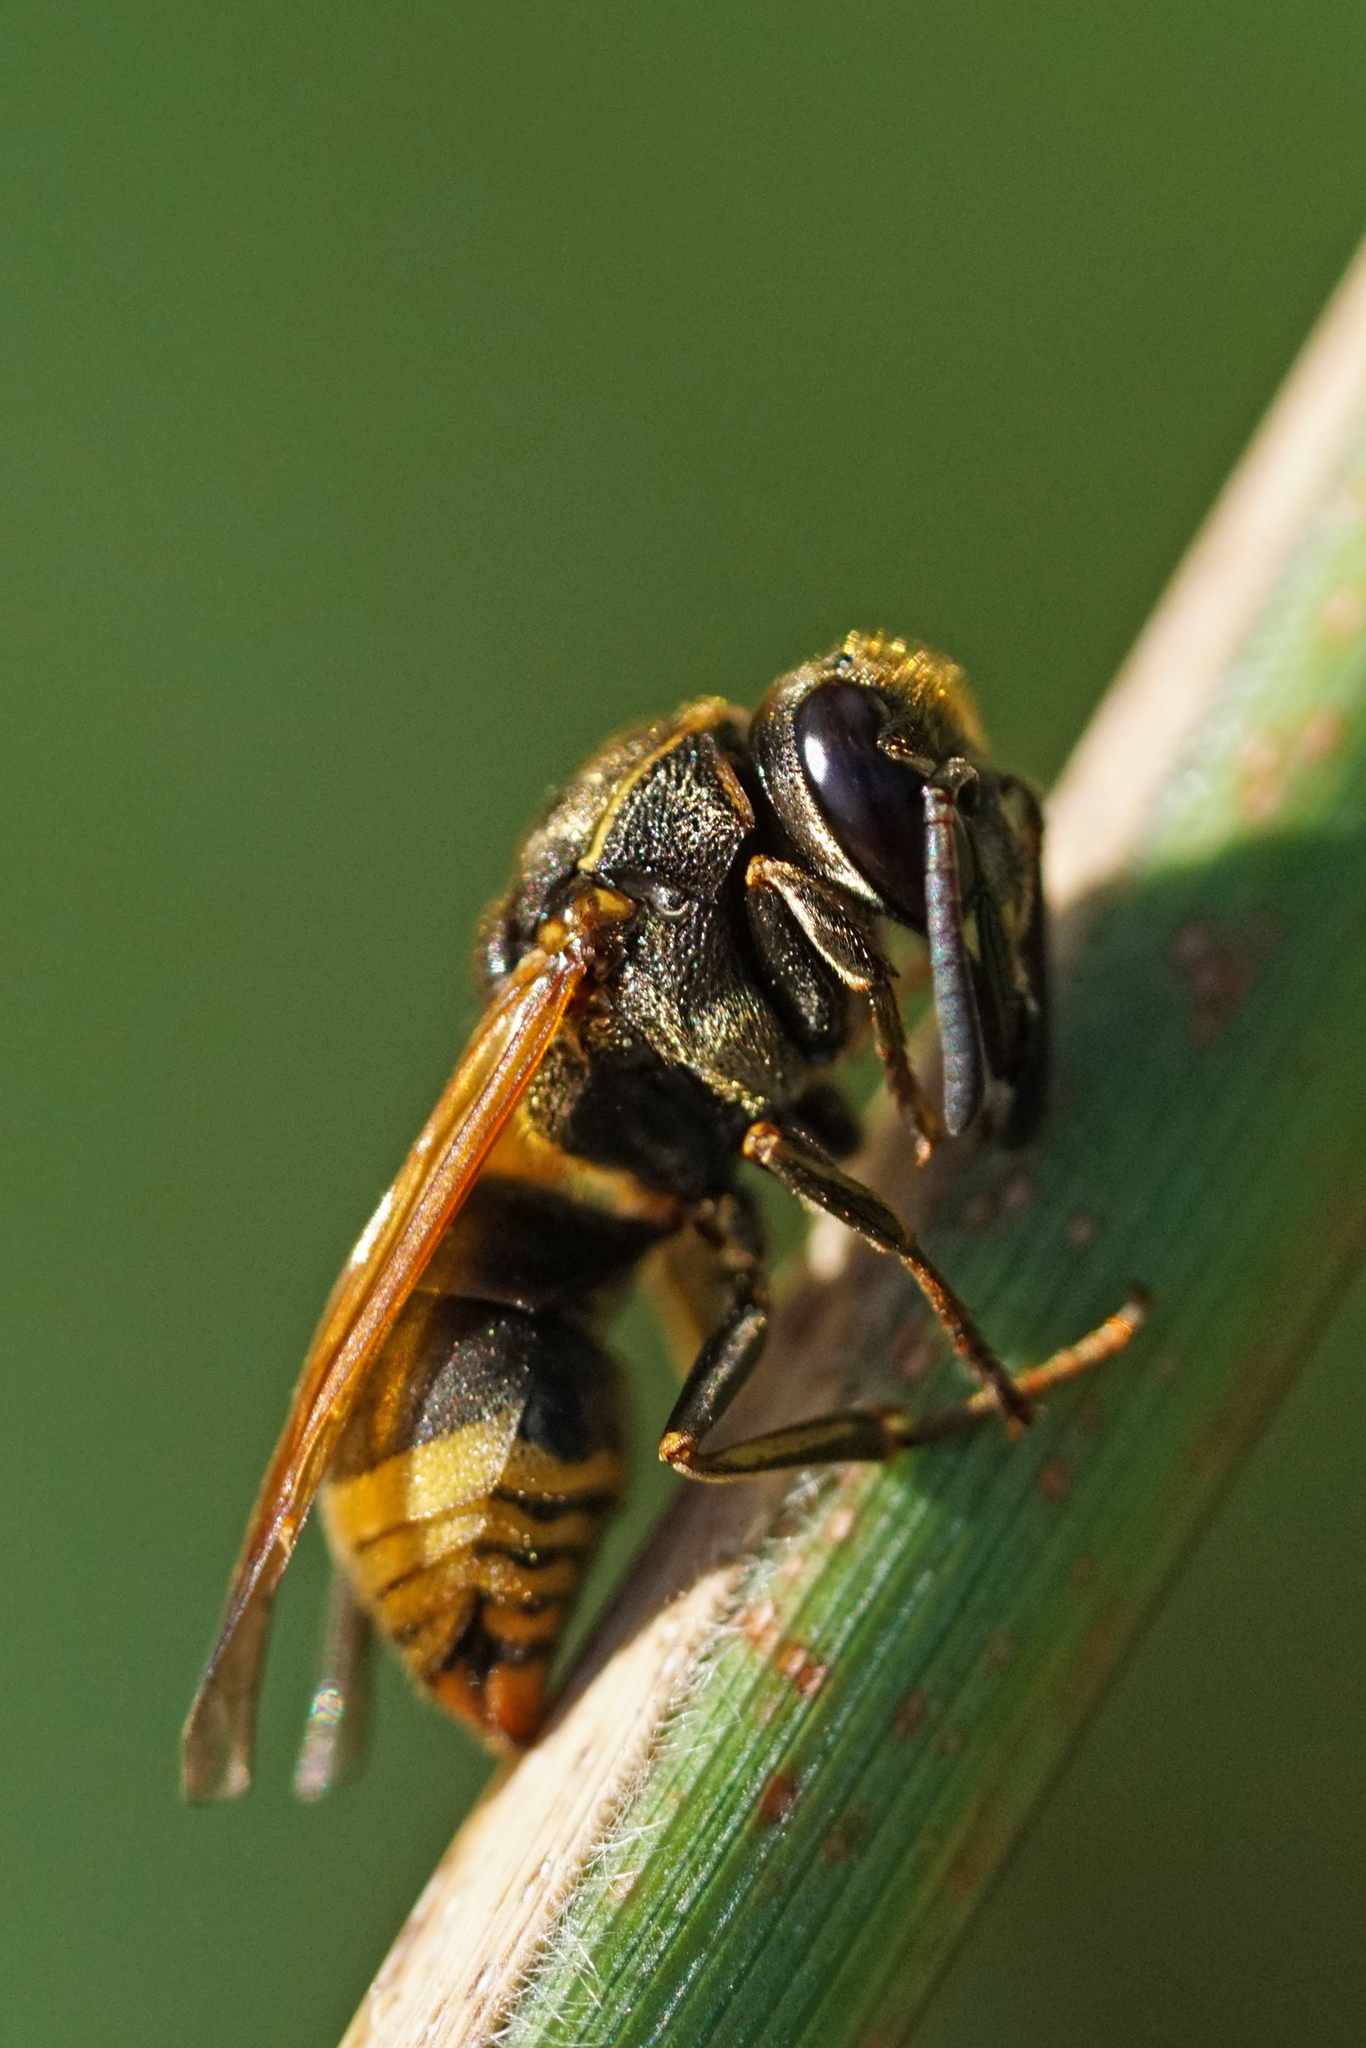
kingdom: Animalia
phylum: Arthropoda
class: Insecta
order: Hymenoptera
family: Eumenidae
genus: Pachodynerus
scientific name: Pachodynerus nasidens
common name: Key hole wasp
